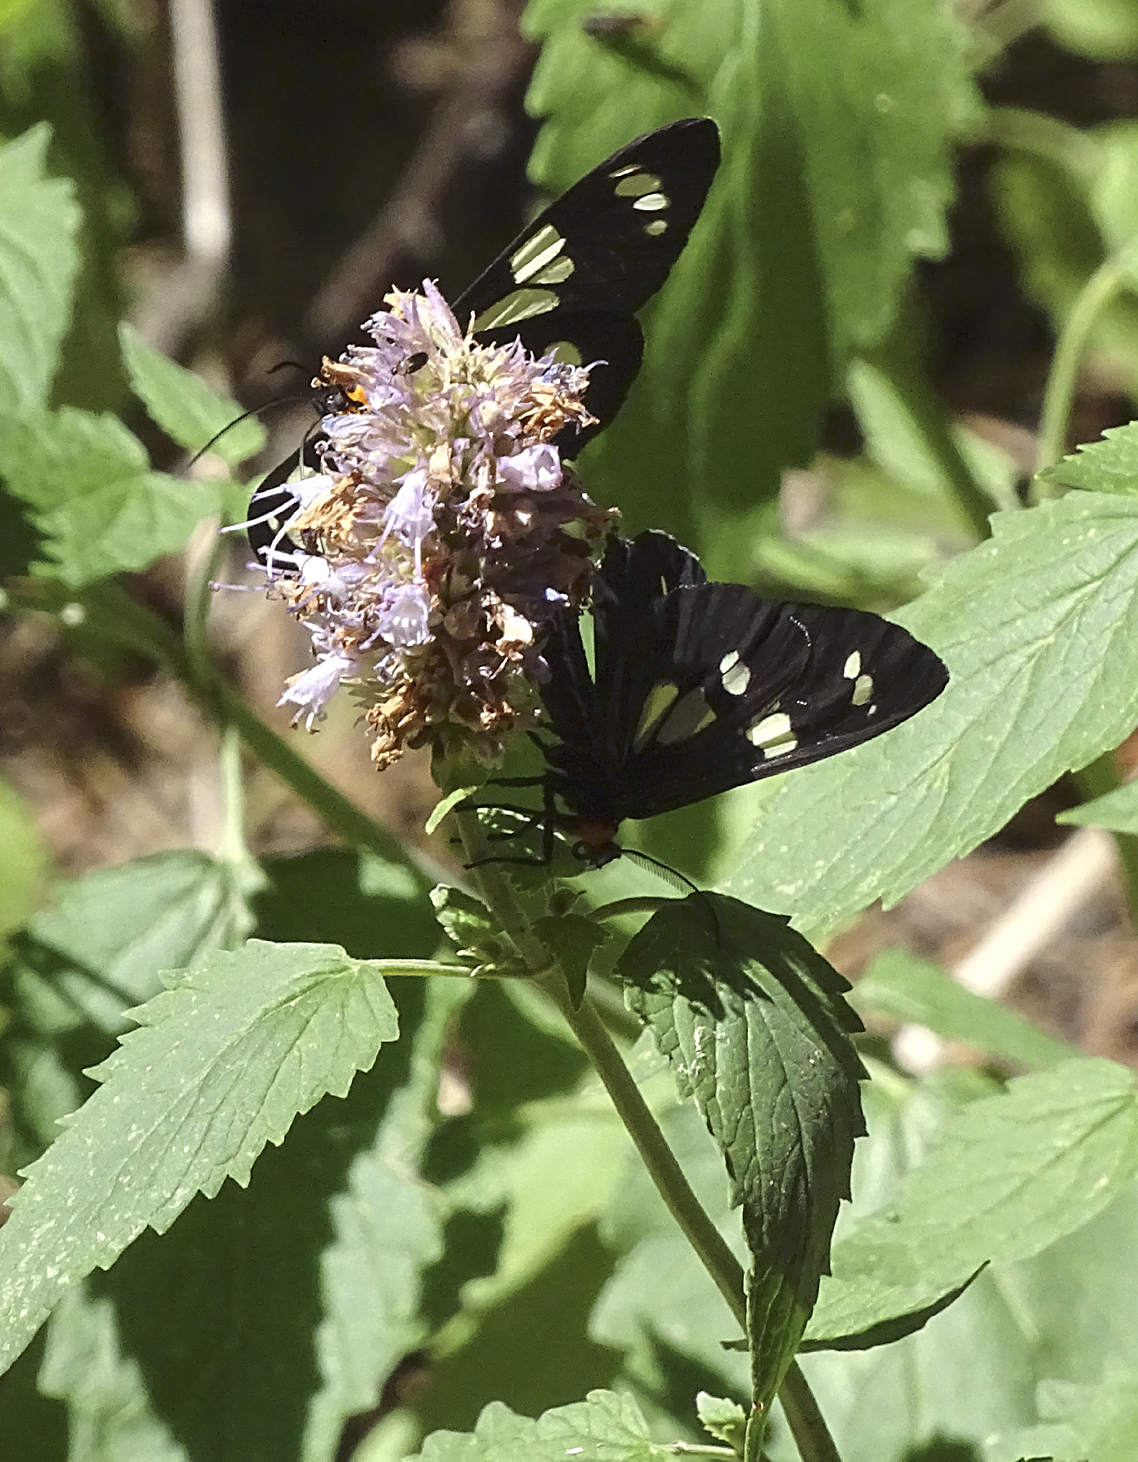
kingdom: Animalia
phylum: Arthropoda
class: Insecta
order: Lepidoptera
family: Erebidae
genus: Gnophaela
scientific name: Gnophaela latipennis
